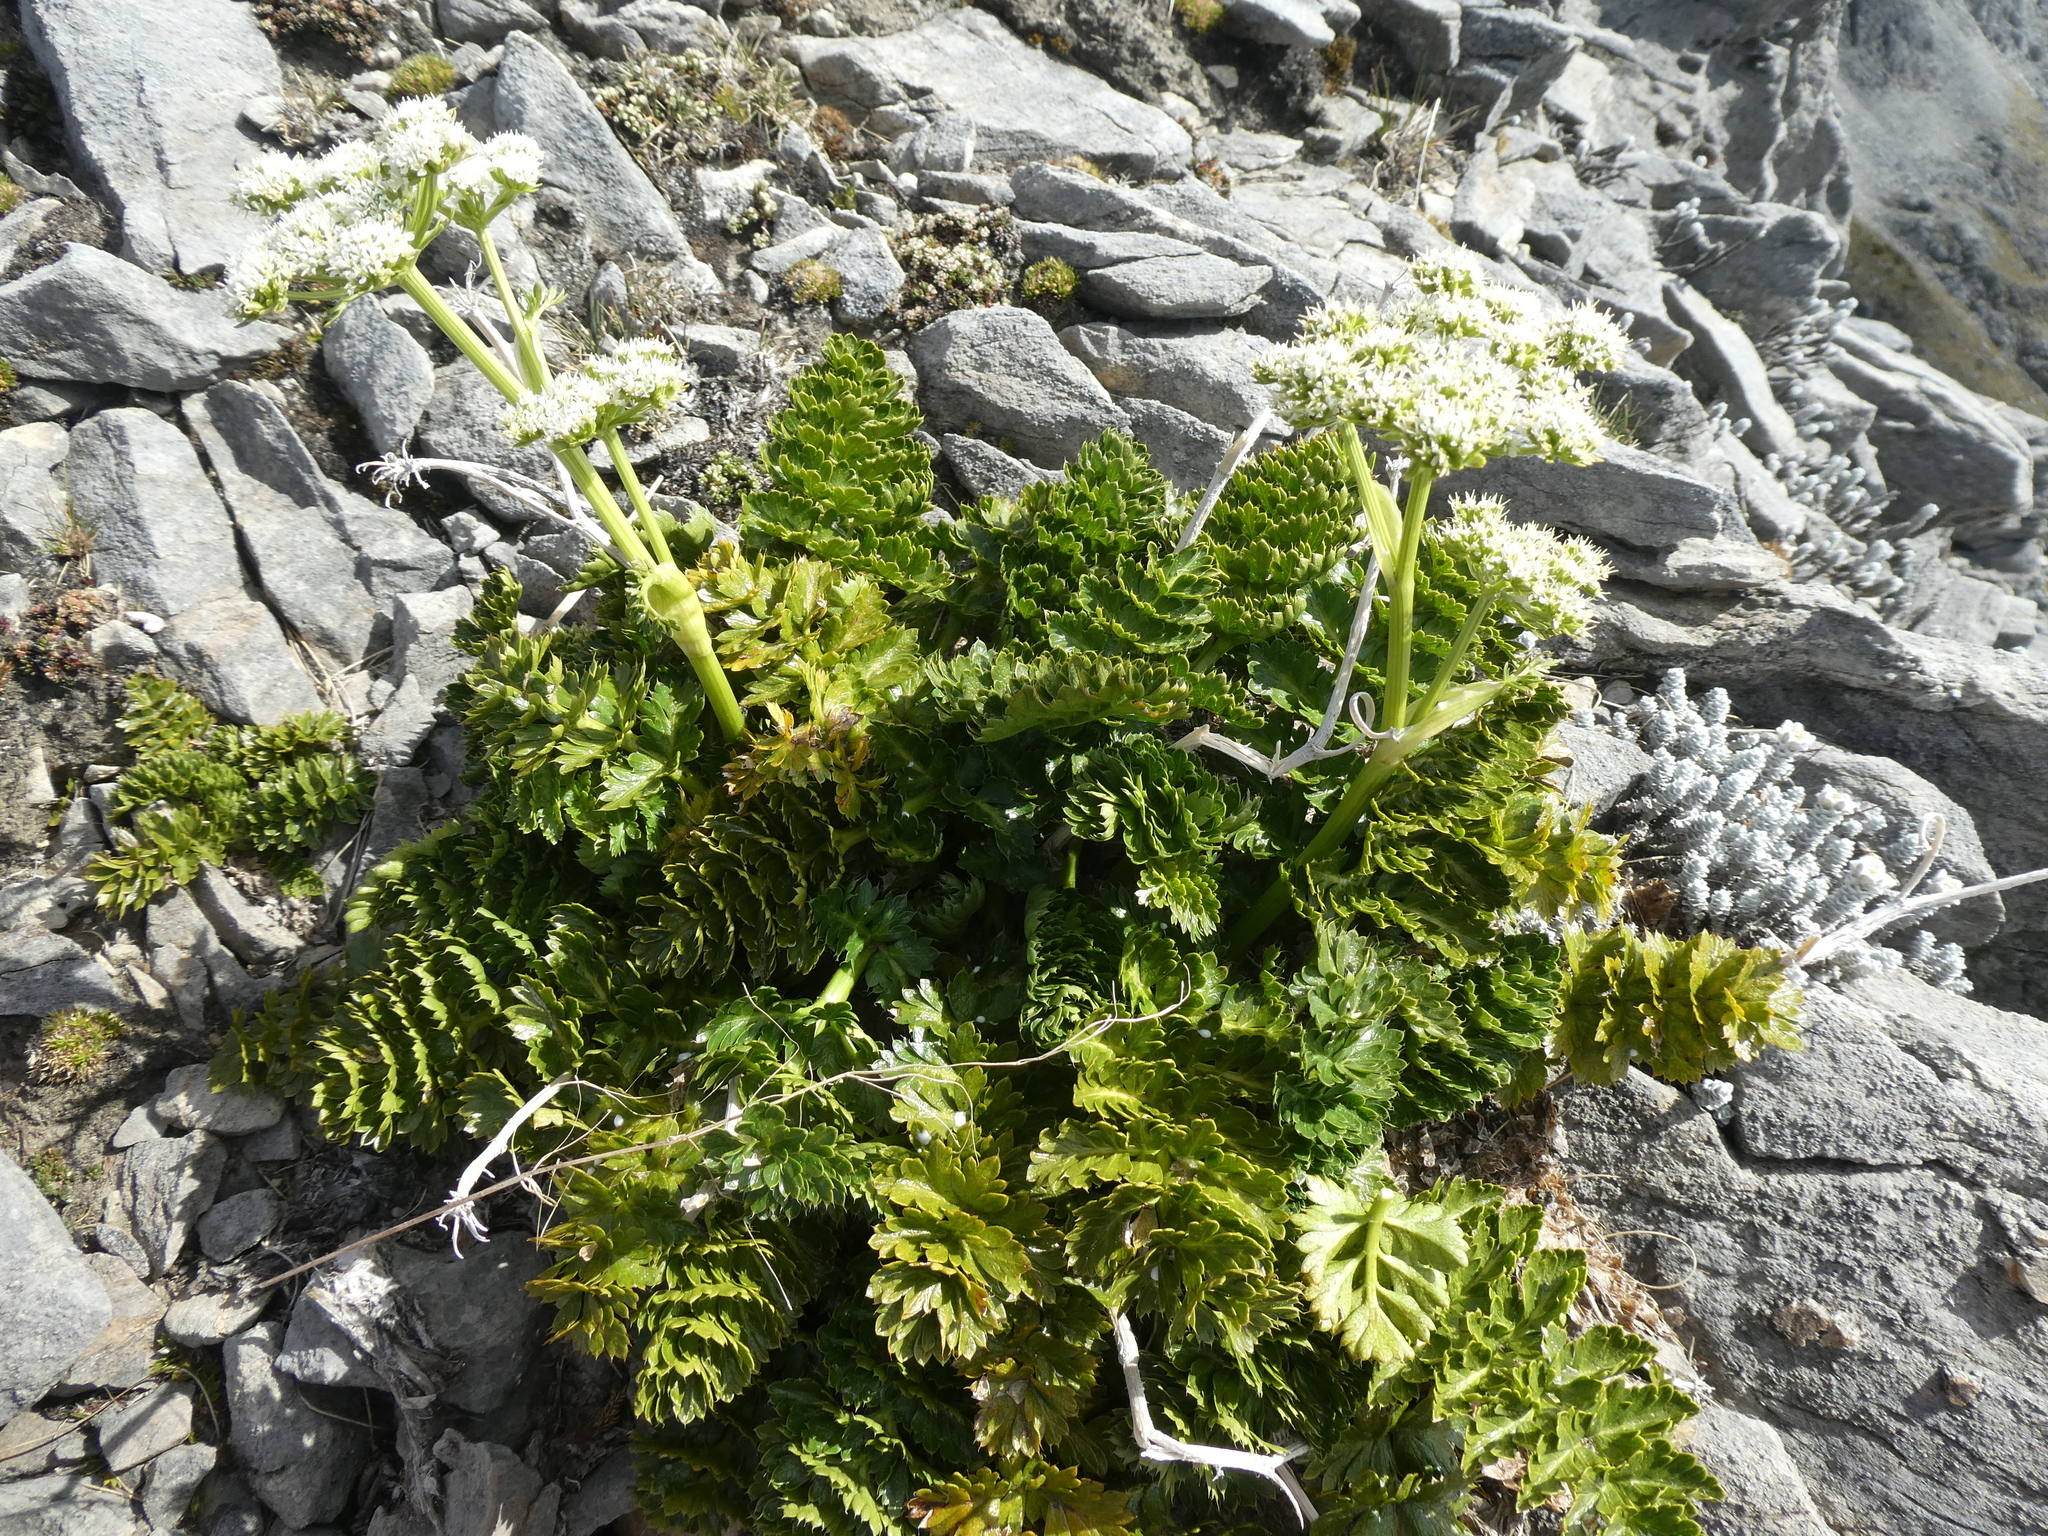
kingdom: Plantae
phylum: Tracheophyta
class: Magnoliopsida
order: Apiales
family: Apiaceae
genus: Anisotome
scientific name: Anisotome pilifera
